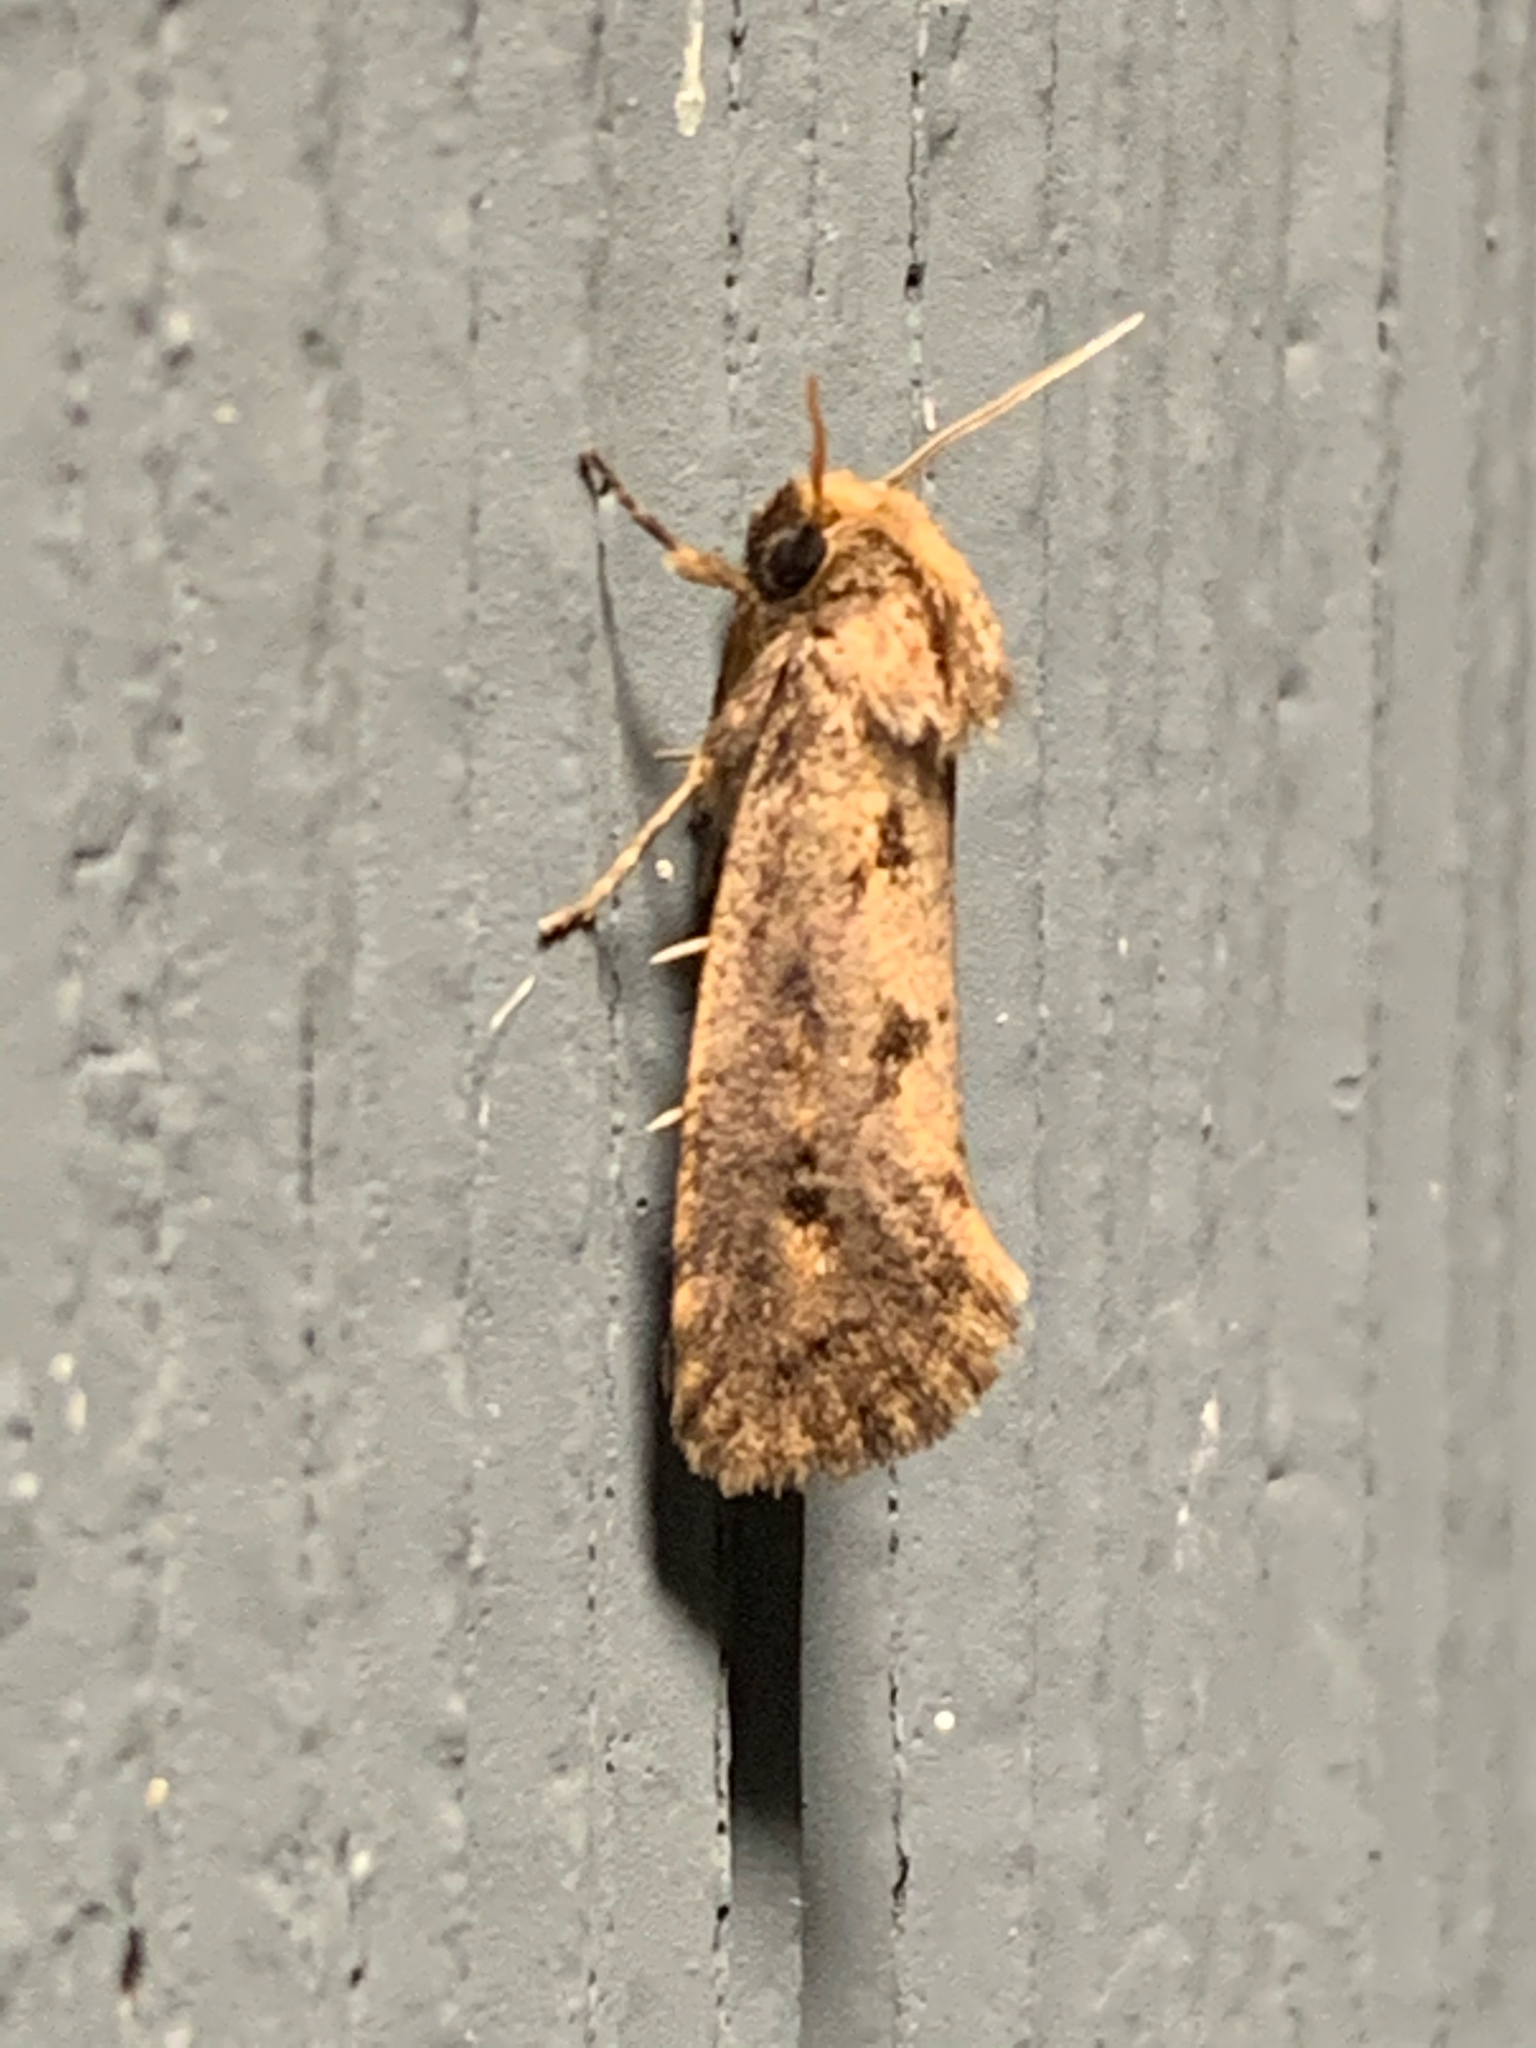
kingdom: Animalia
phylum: Arthropoda
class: Insecta
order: Lepidoptera
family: Tineidae
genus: Acrolophus
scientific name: Acrolophus popeanella
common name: Clemens' grass tubeworm moth
